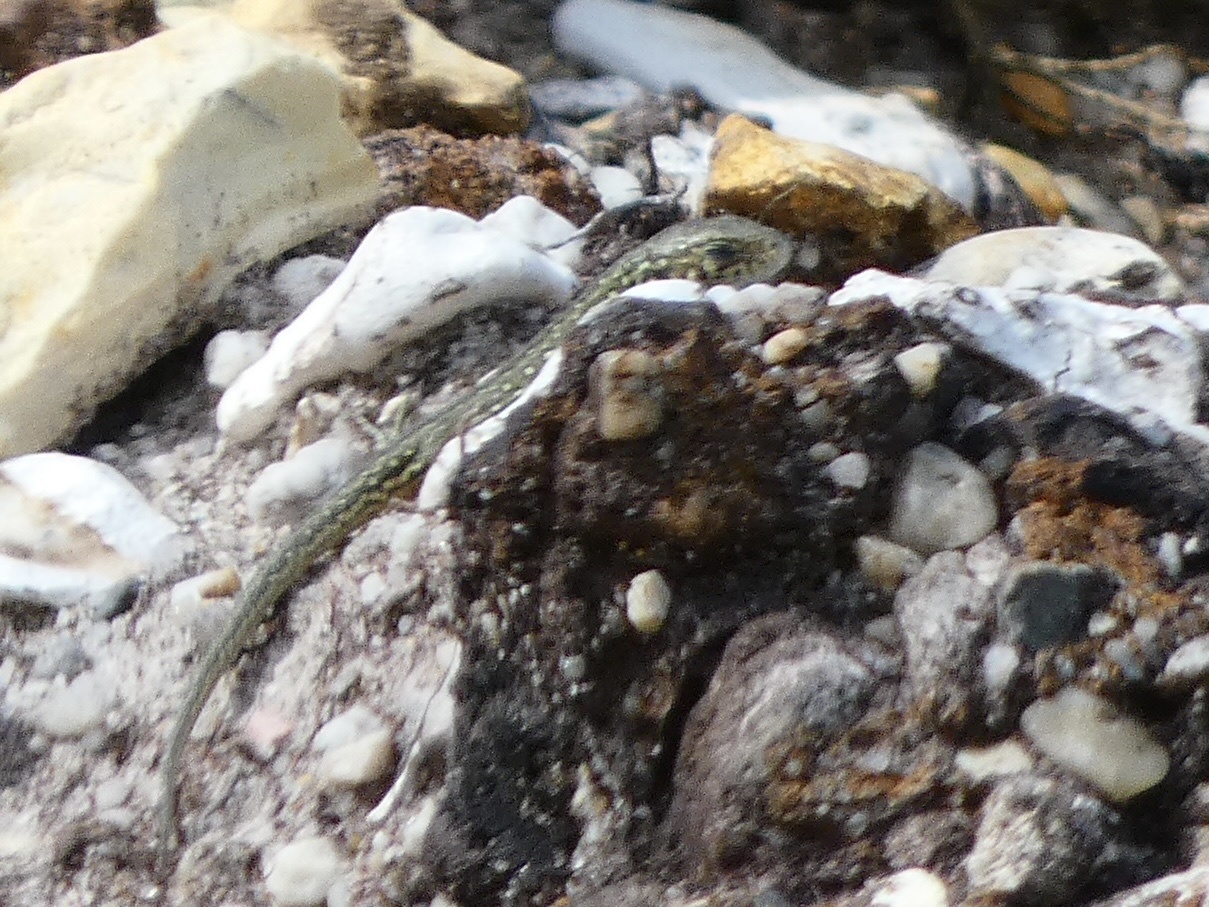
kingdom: Animalia
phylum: Chordata
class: Squamata
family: Lacertidae
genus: Lacerta
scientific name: Lacerta agilis
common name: Sand lizard
